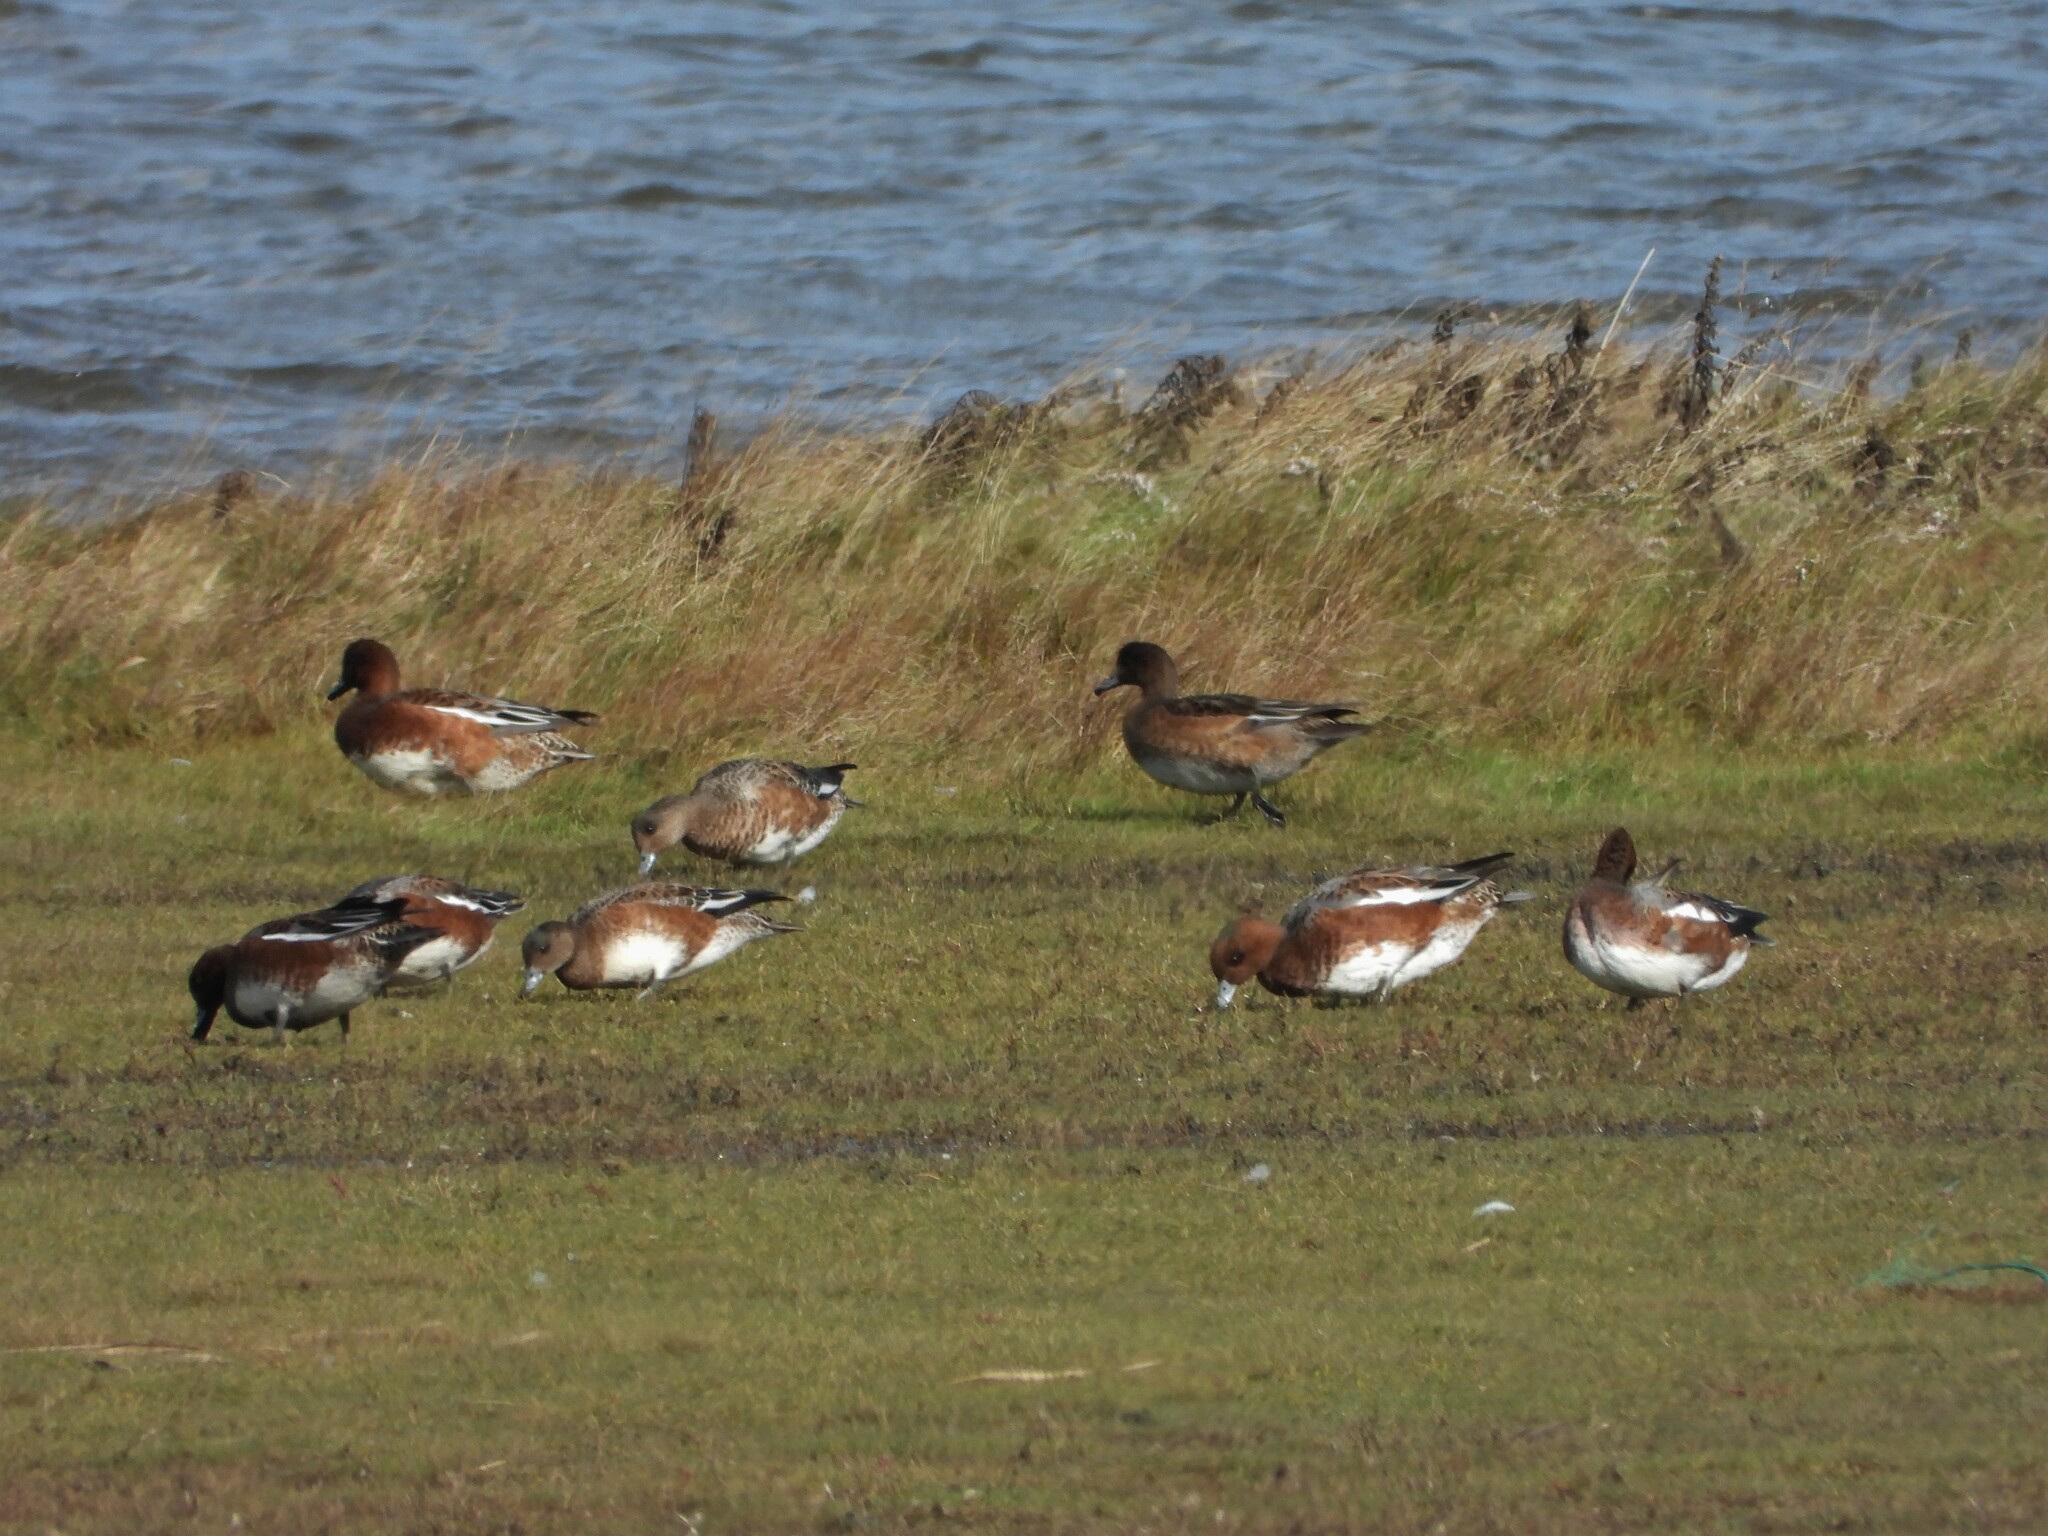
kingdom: Animalia
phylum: Chordata
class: Aves
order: Anseriformes
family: Anatidae
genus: Mareca
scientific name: Mareca penelope
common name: Eurasian wigeon
